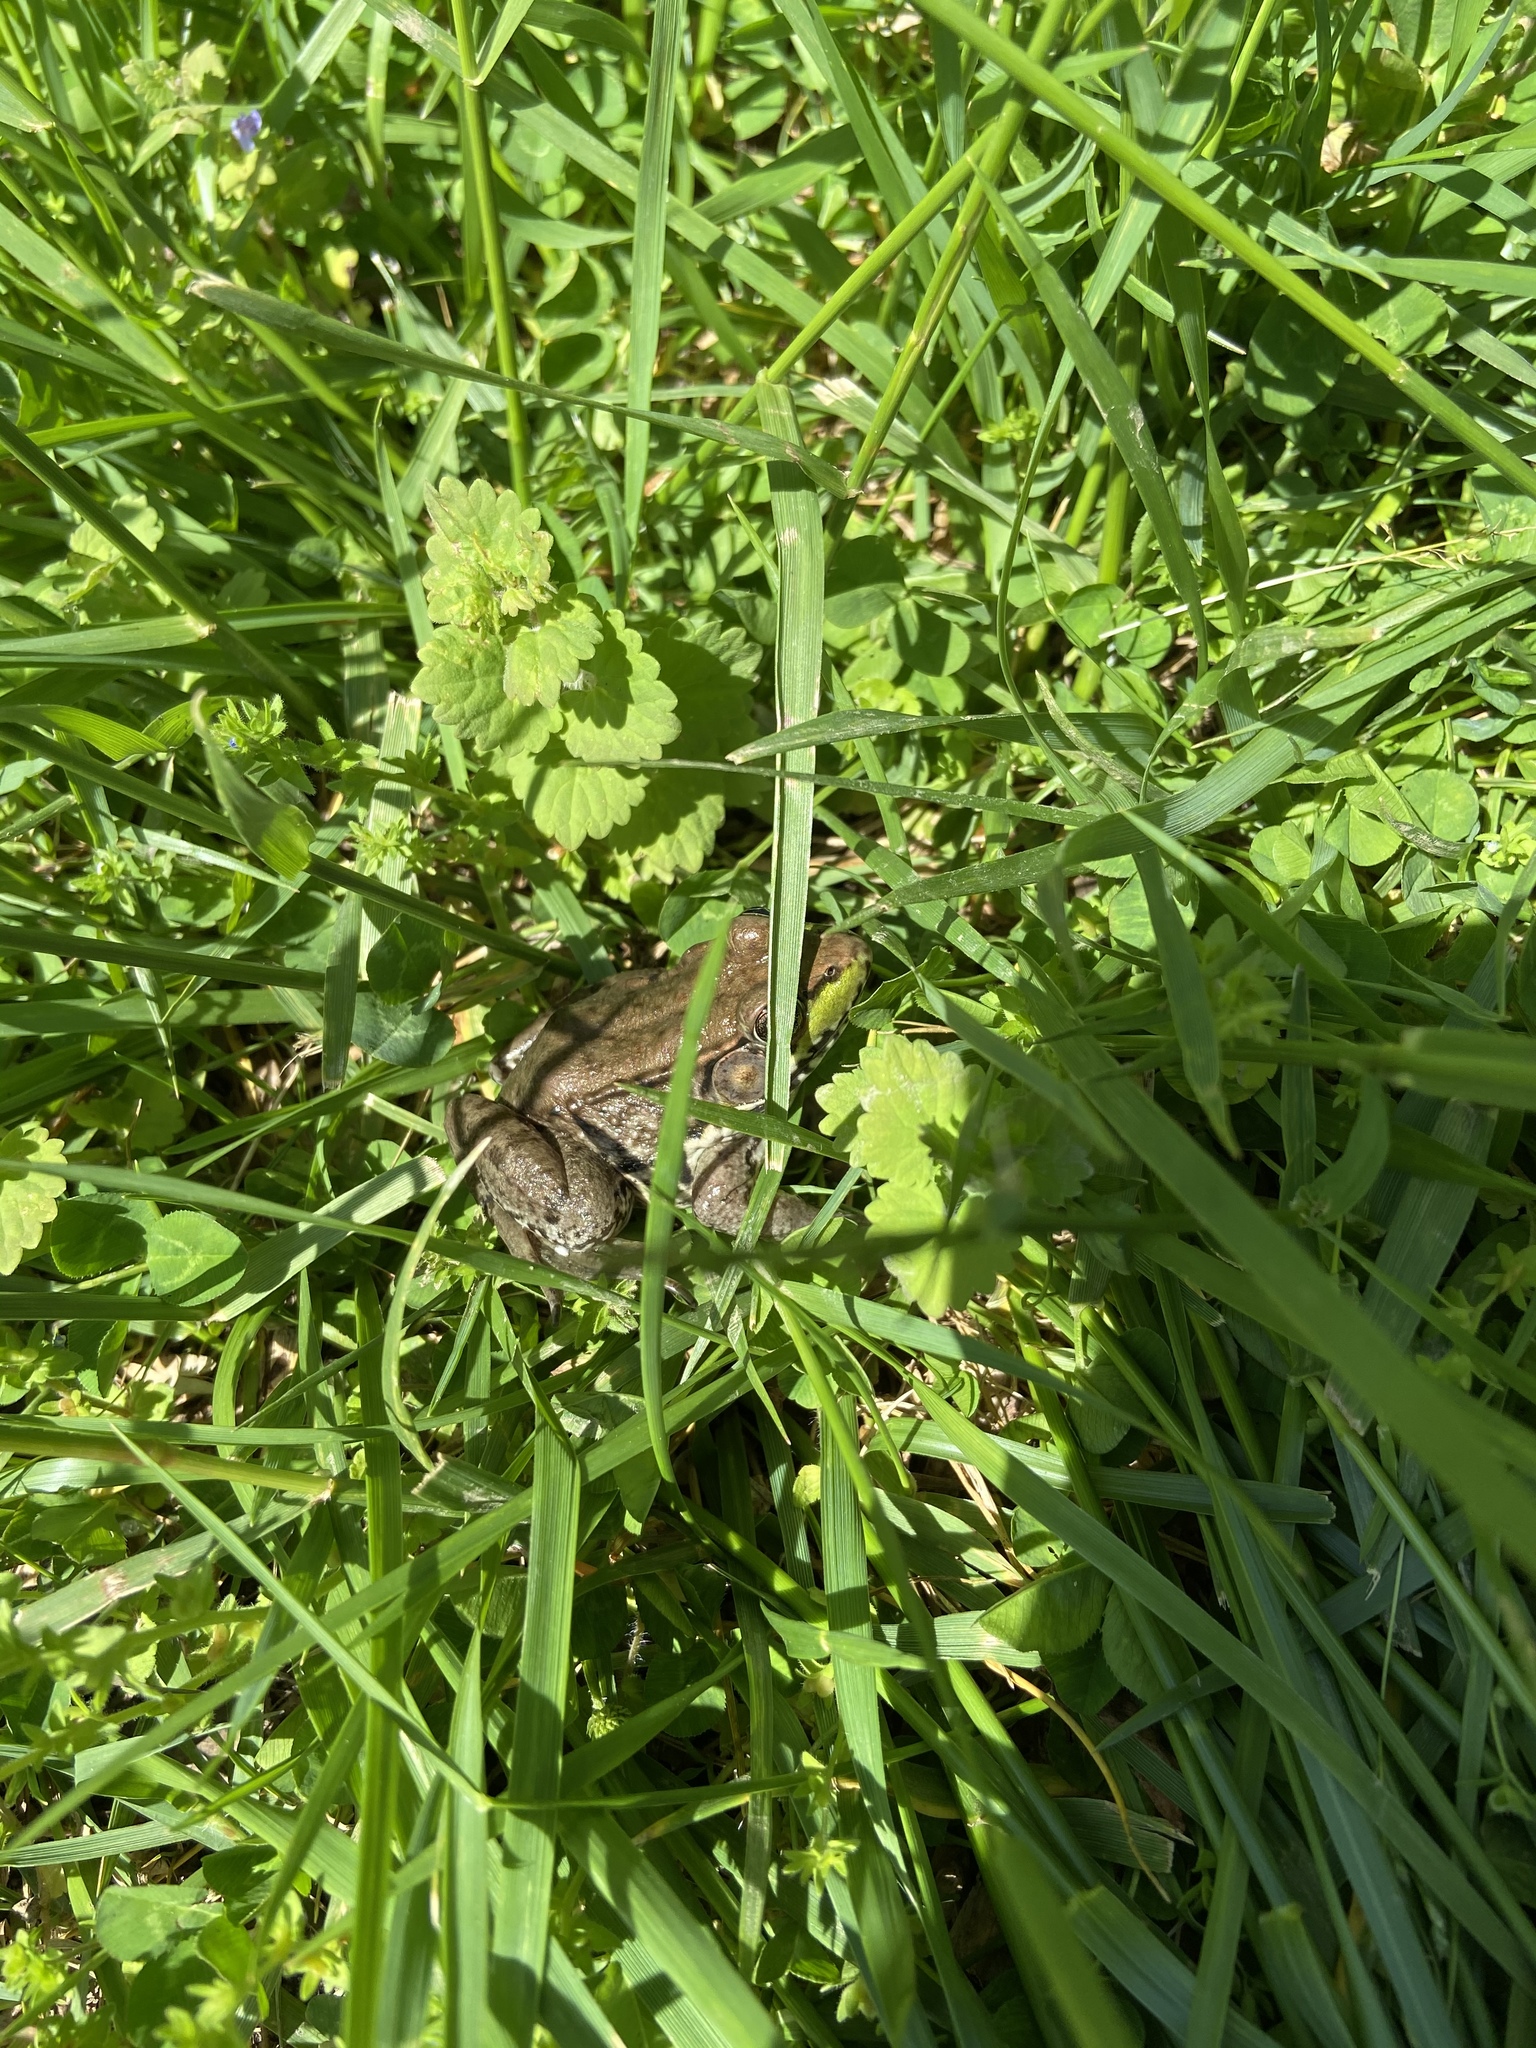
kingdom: Animalia
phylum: Chordata
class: Amphibia
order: Anura
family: Ranidae
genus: Lithobates
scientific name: Lithobates clamitans
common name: Green frog
